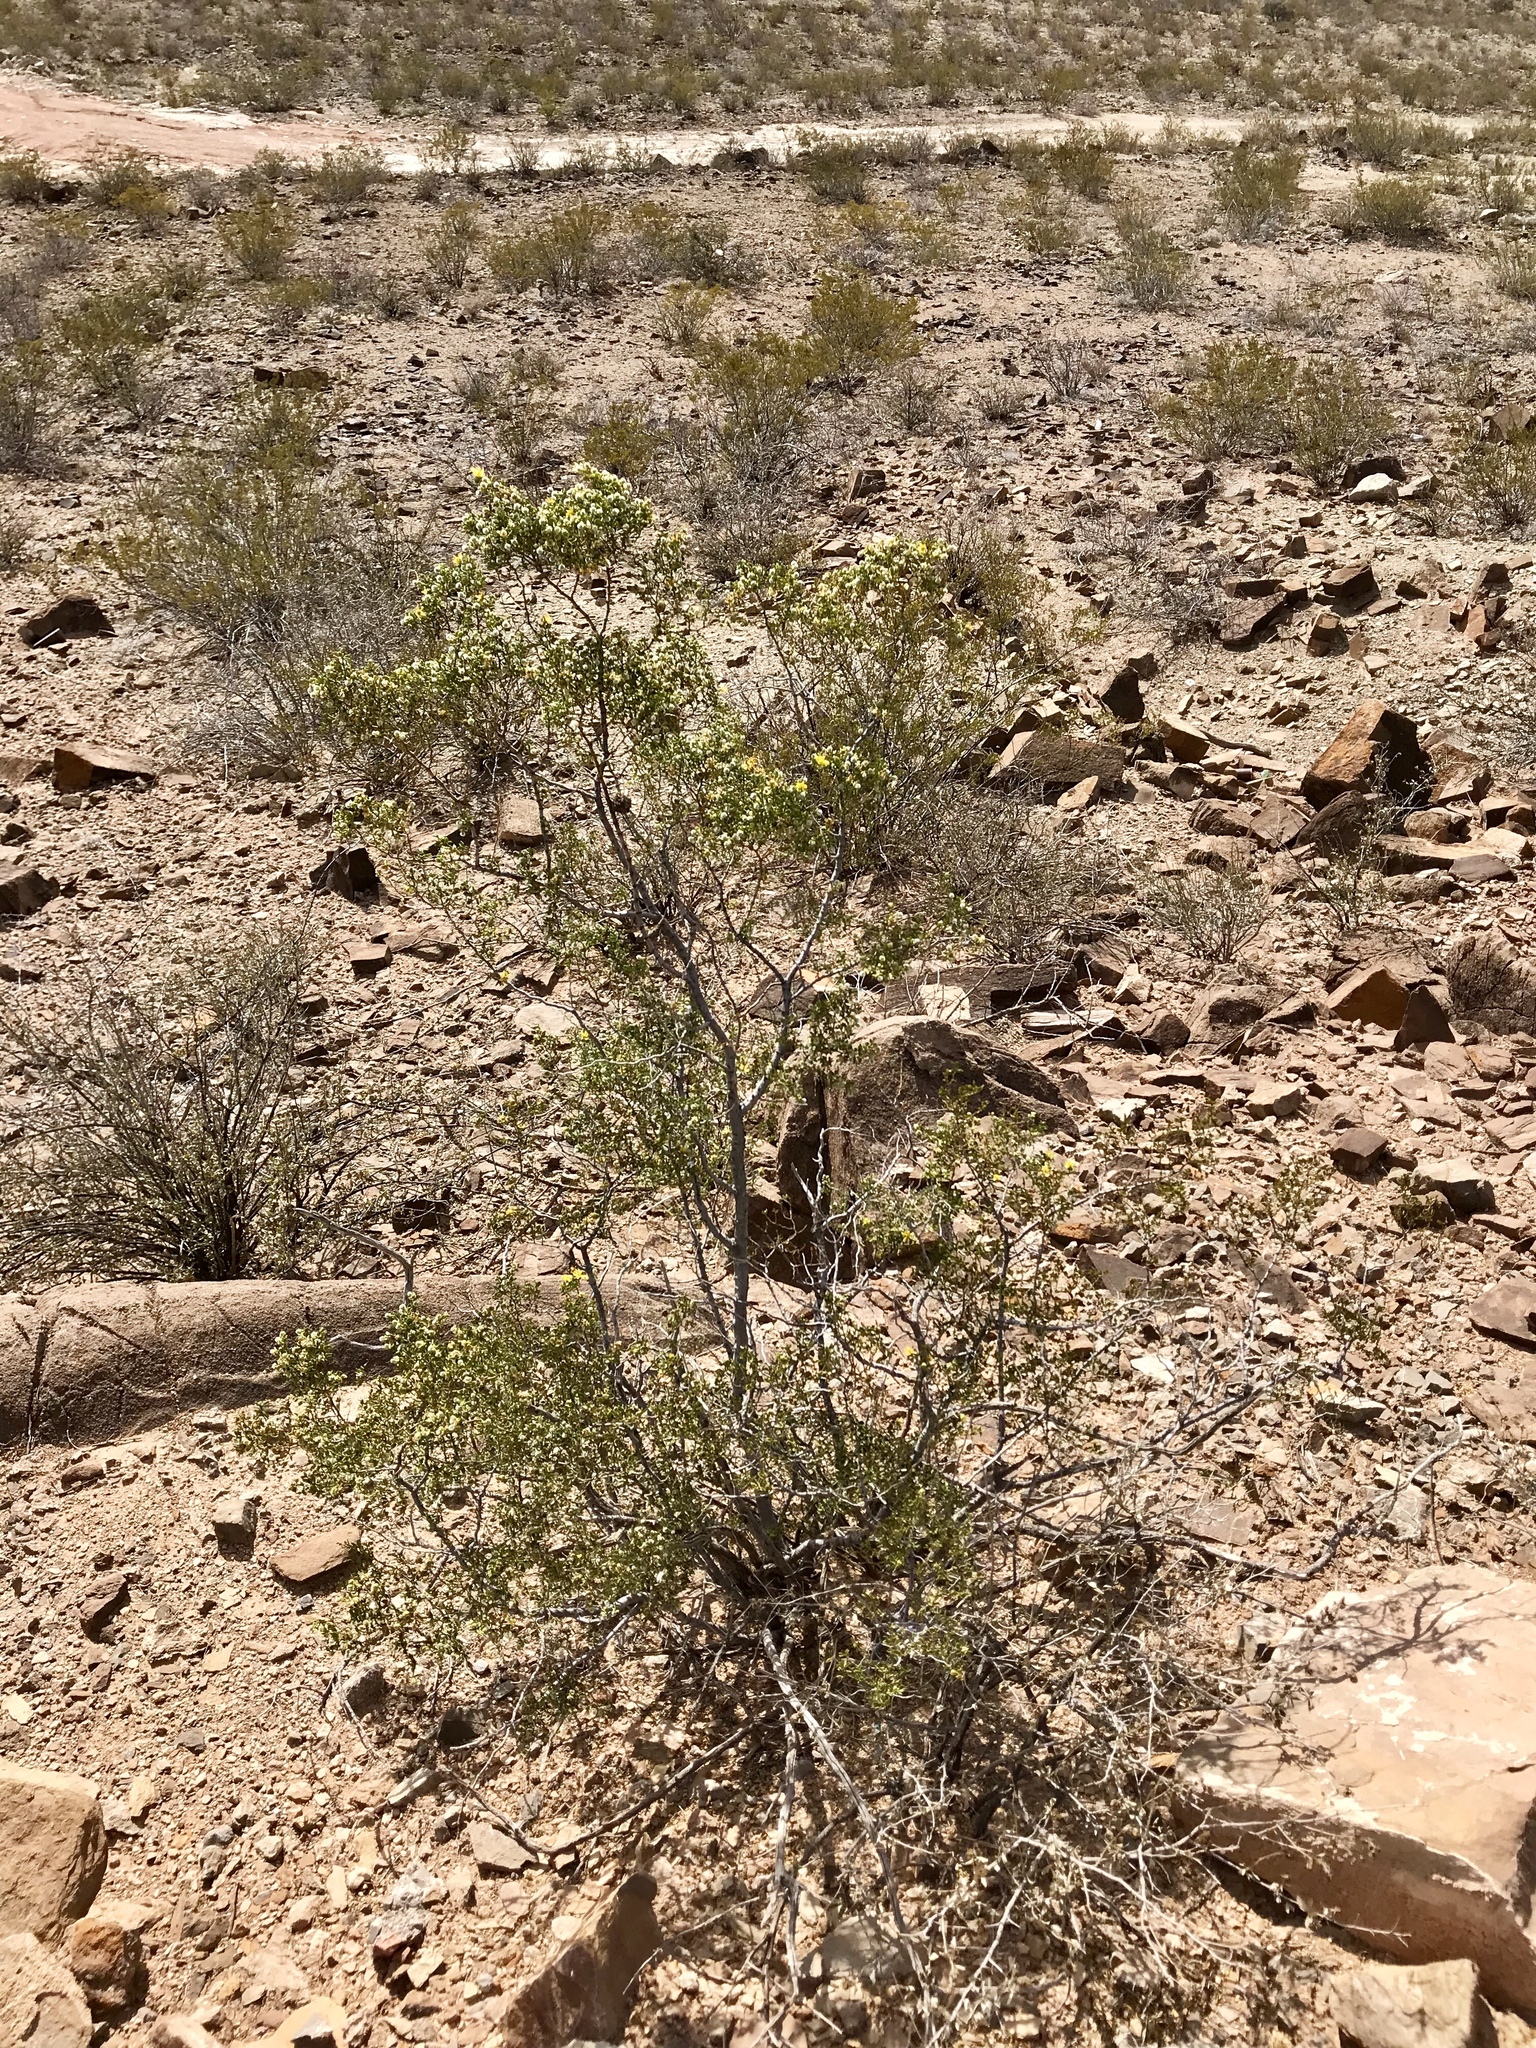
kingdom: Plantae
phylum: Tracheophyta
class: Magnoliopsida
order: Zygophyllales
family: Zygophyllaceae
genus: Larrea
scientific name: Larrea tridentata
